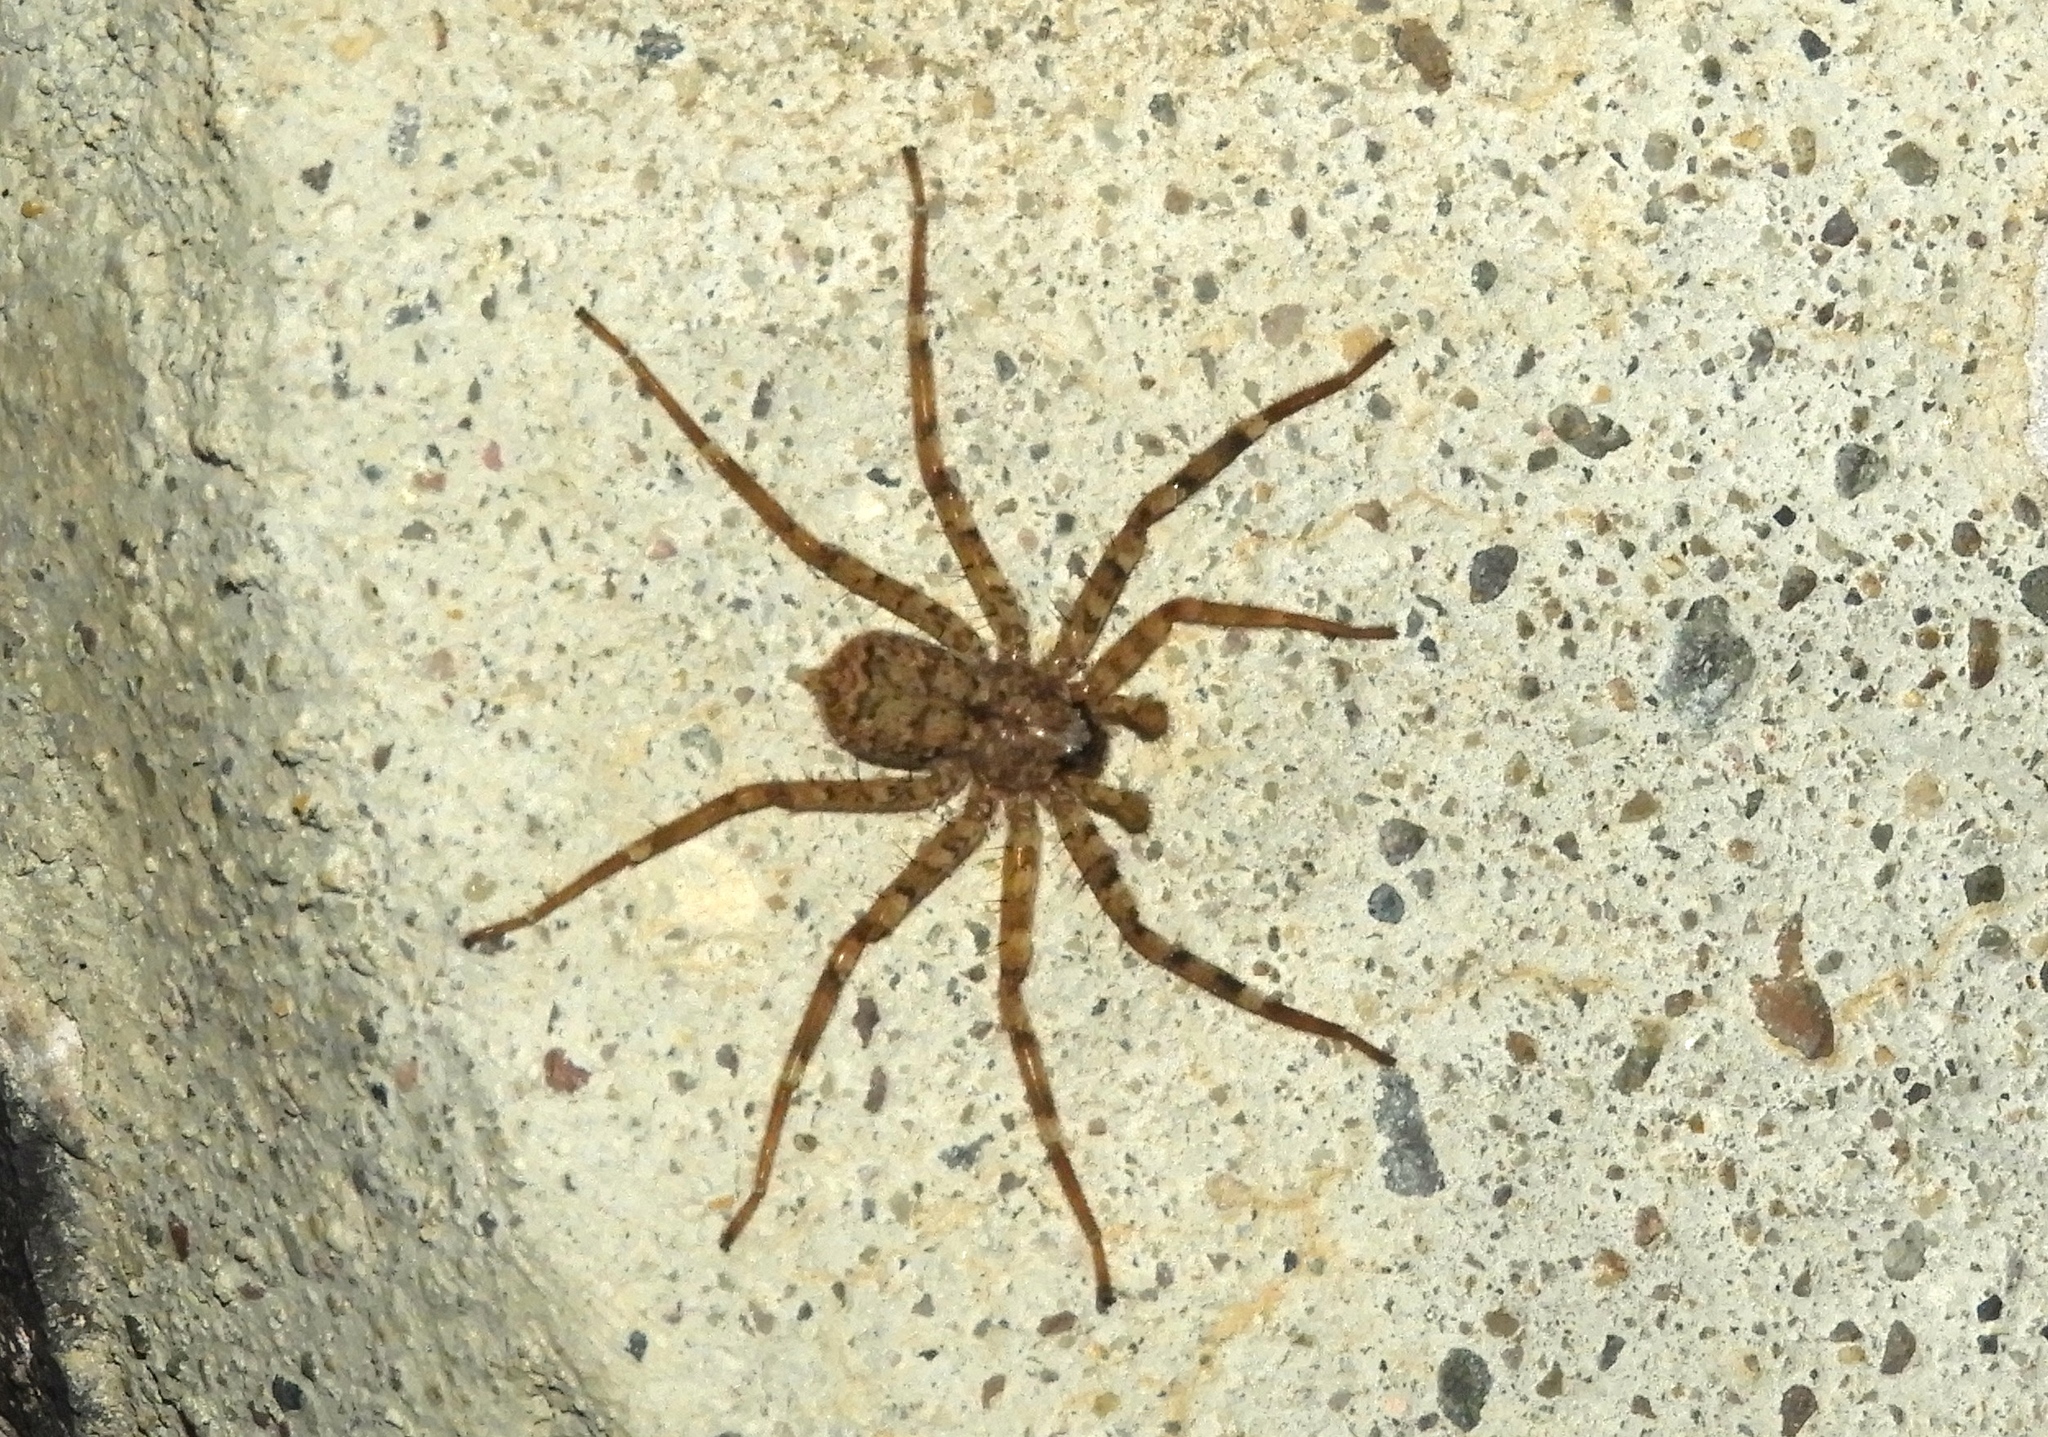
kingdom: Animalia
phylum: Arthropoda
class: Arachnida
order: Araneae
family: Selenopidae
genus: Selenops
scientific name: Selenops
